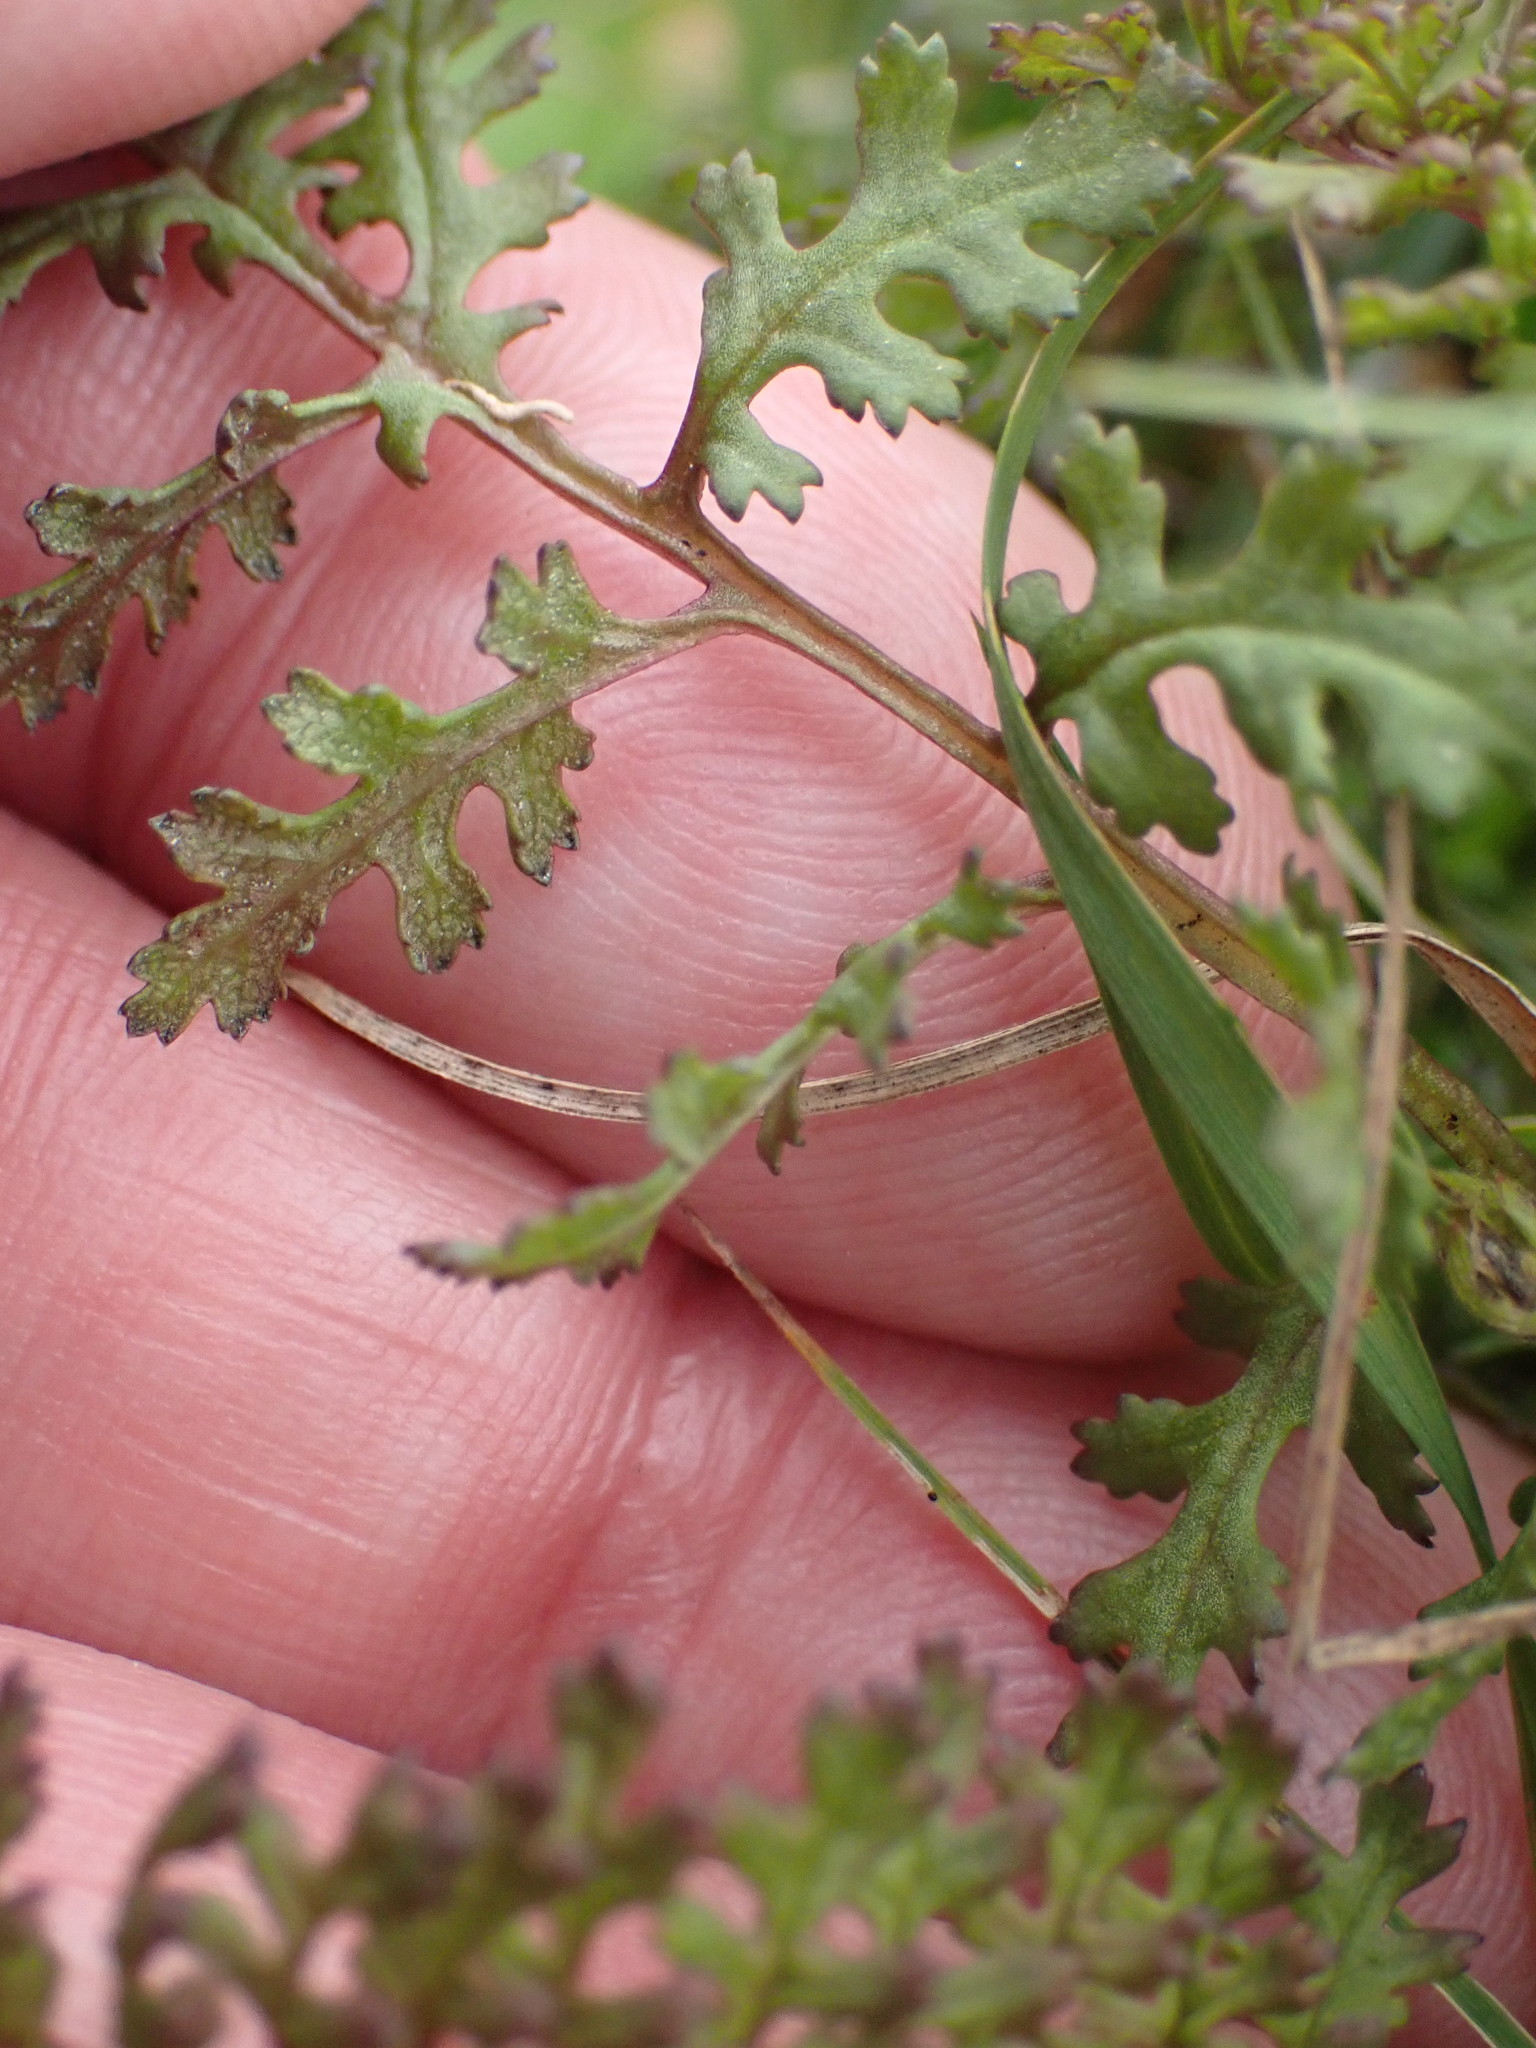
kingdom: Plantae
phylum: Tracheophyta
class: Magnoliopsida
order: Lamiales
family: Orobanchaceae
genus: Pedicularis
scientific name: Pedicularis palustris
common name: Marsh lousewort
